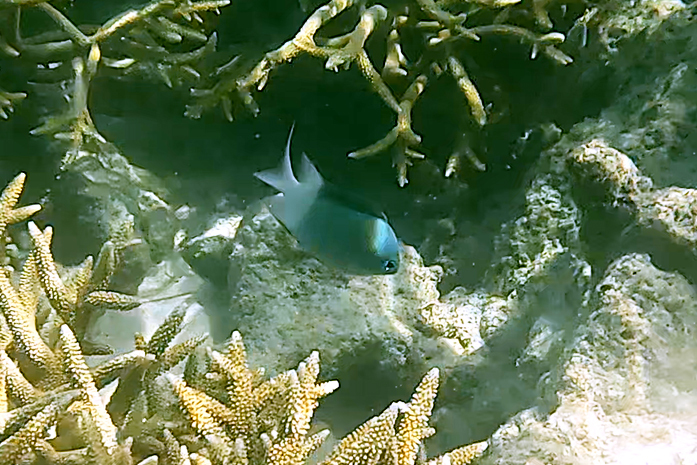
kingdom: Animalia
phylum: Chordata
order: Perciformes
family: Pomacentridae
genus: Acanthochromis
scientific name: Acanthochromis polyacanthus
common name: Spiny chromis
